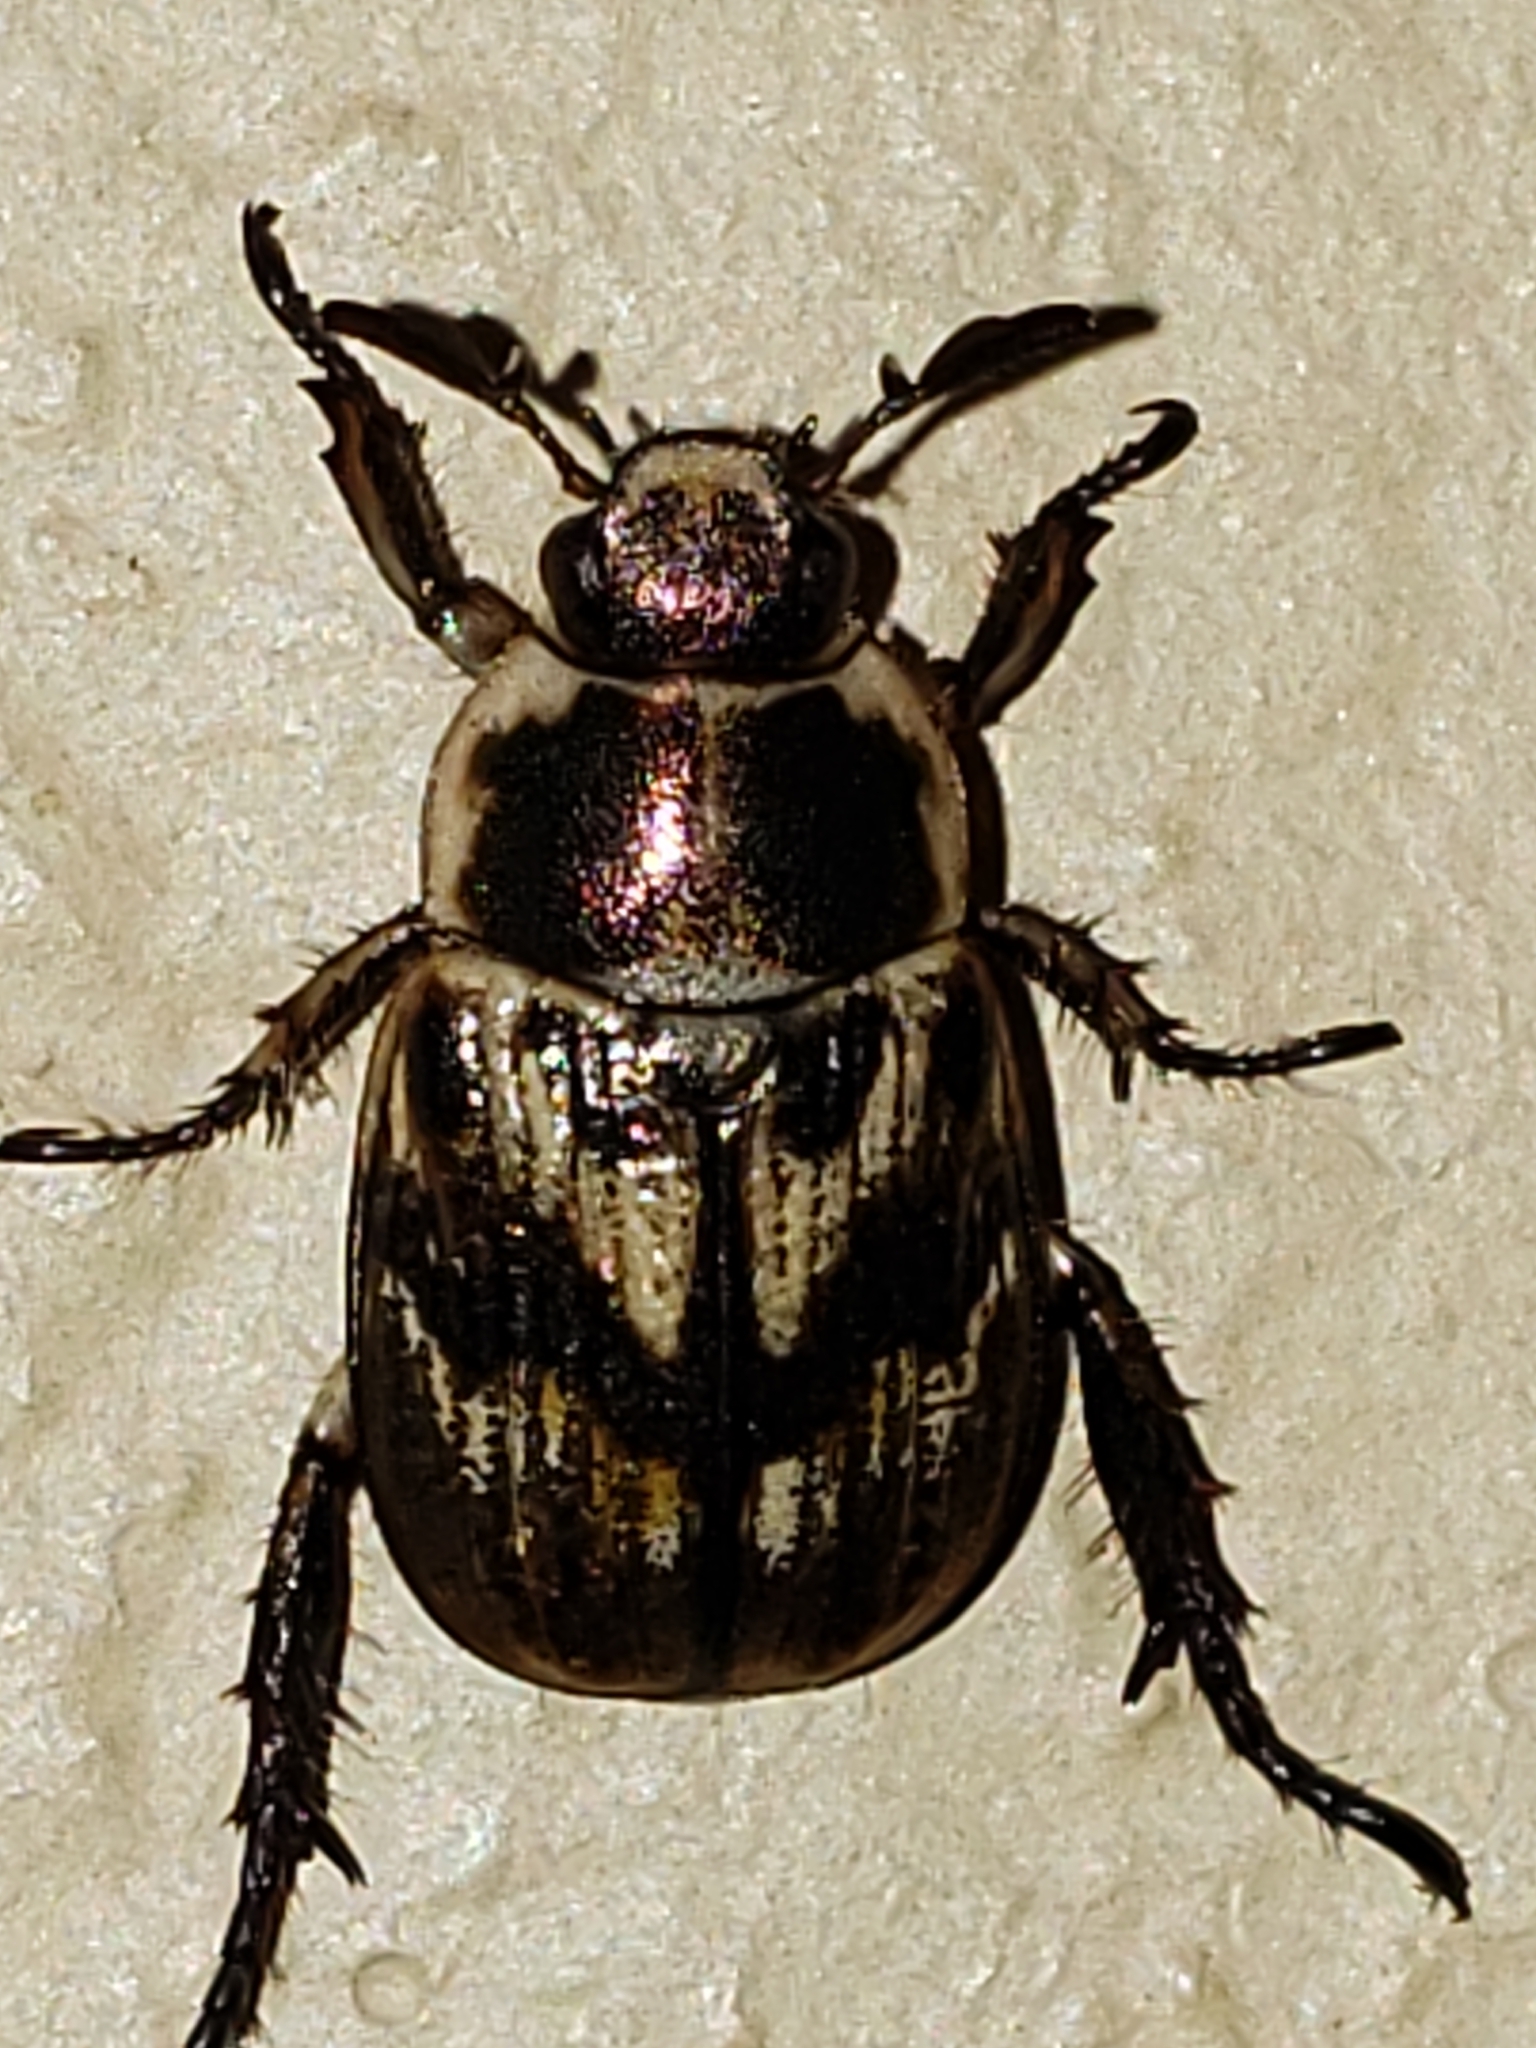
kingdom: Animalia
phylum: Arthropoda
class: Insecta
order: Coleoptera
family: Scarabaeidae
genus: Exomala
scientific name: Exomala orientalis
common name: Oriental beetle
